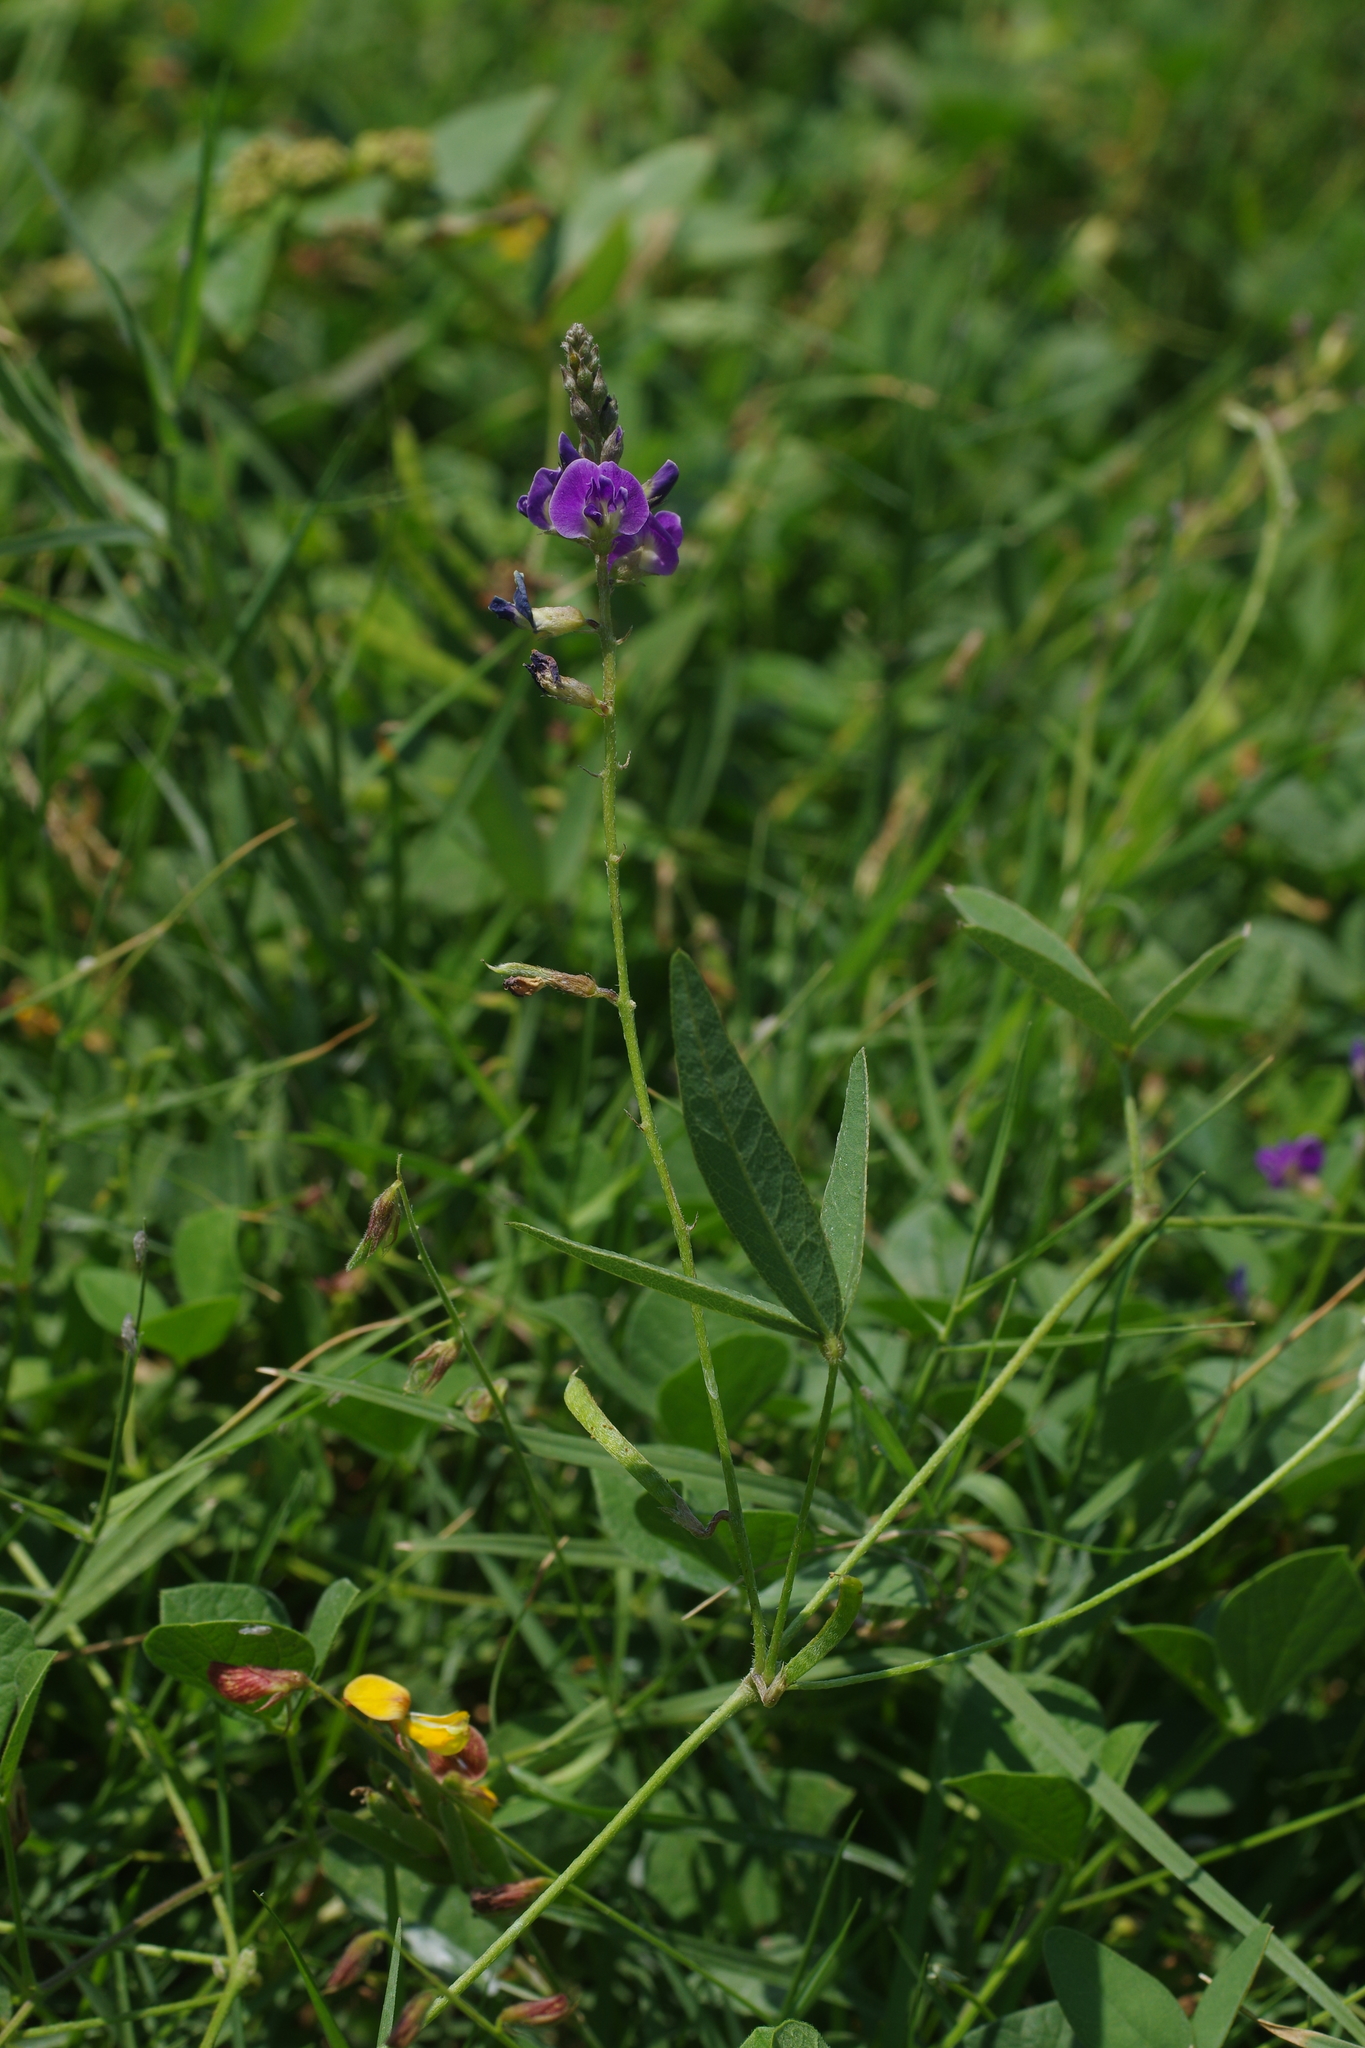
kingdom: Plantae
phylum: Tracheophyta
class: Magnoliopsida
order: Fabales
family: Fabaceae
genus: Glycine
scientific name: Glycine tabacina
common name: Pea glycine
